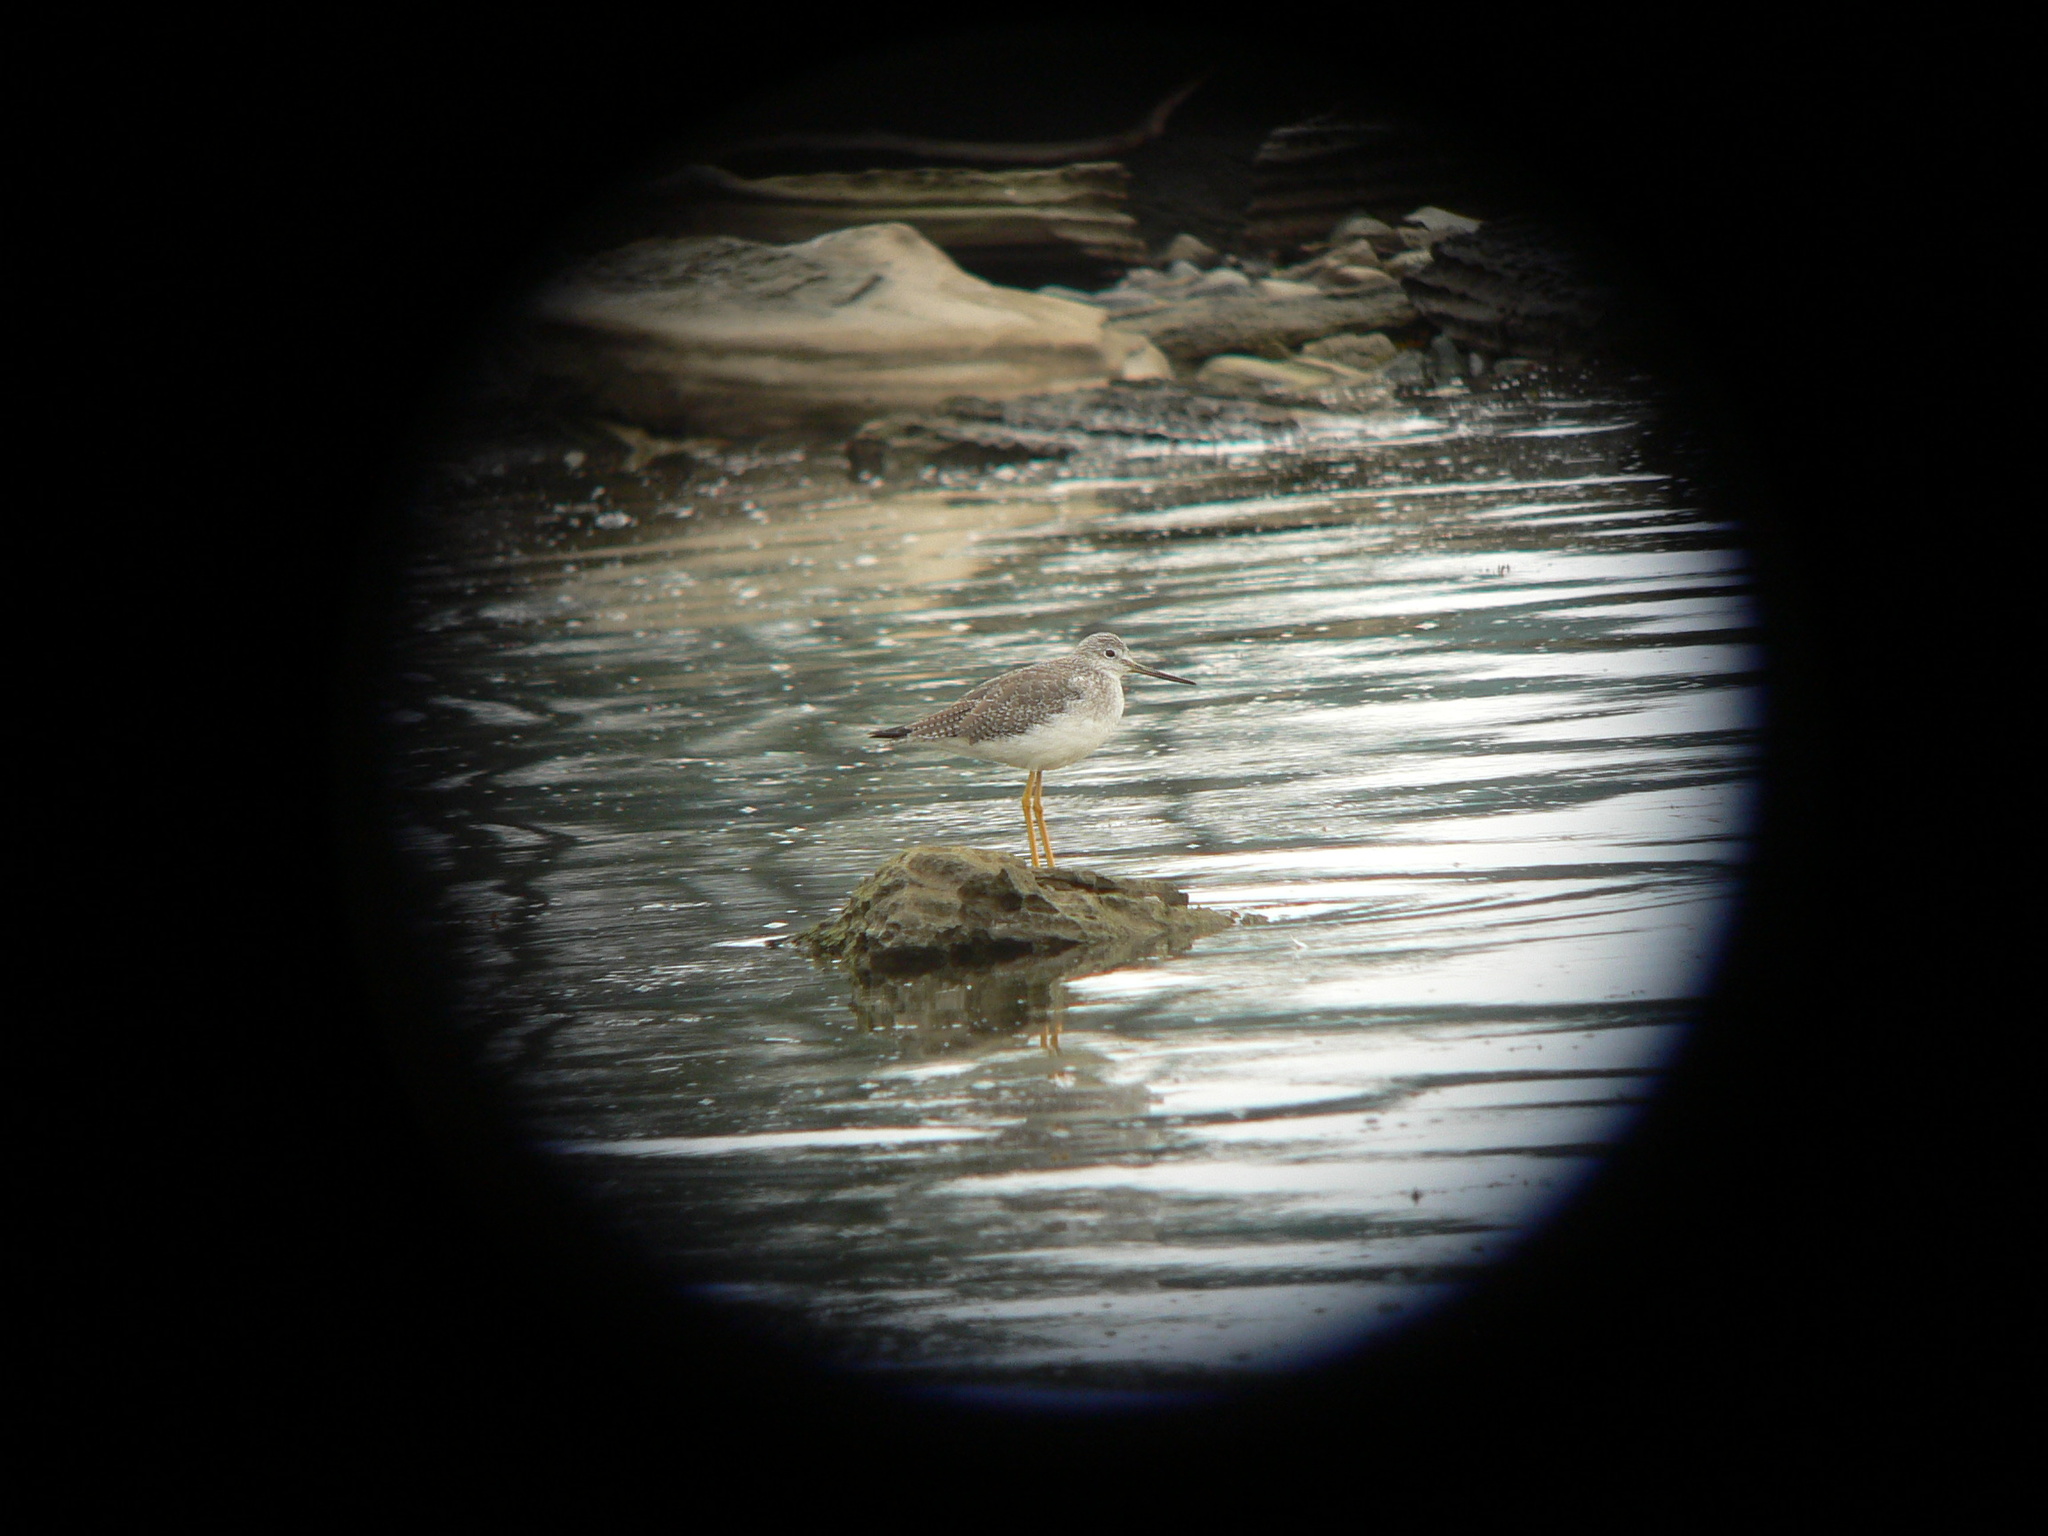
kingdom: Animalia
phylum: Chordata
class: Aves
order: Charadriiformes
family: Scolopacidae
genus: Tringa
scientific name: Tringa melanoleuca
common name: Greater yellowlegs
